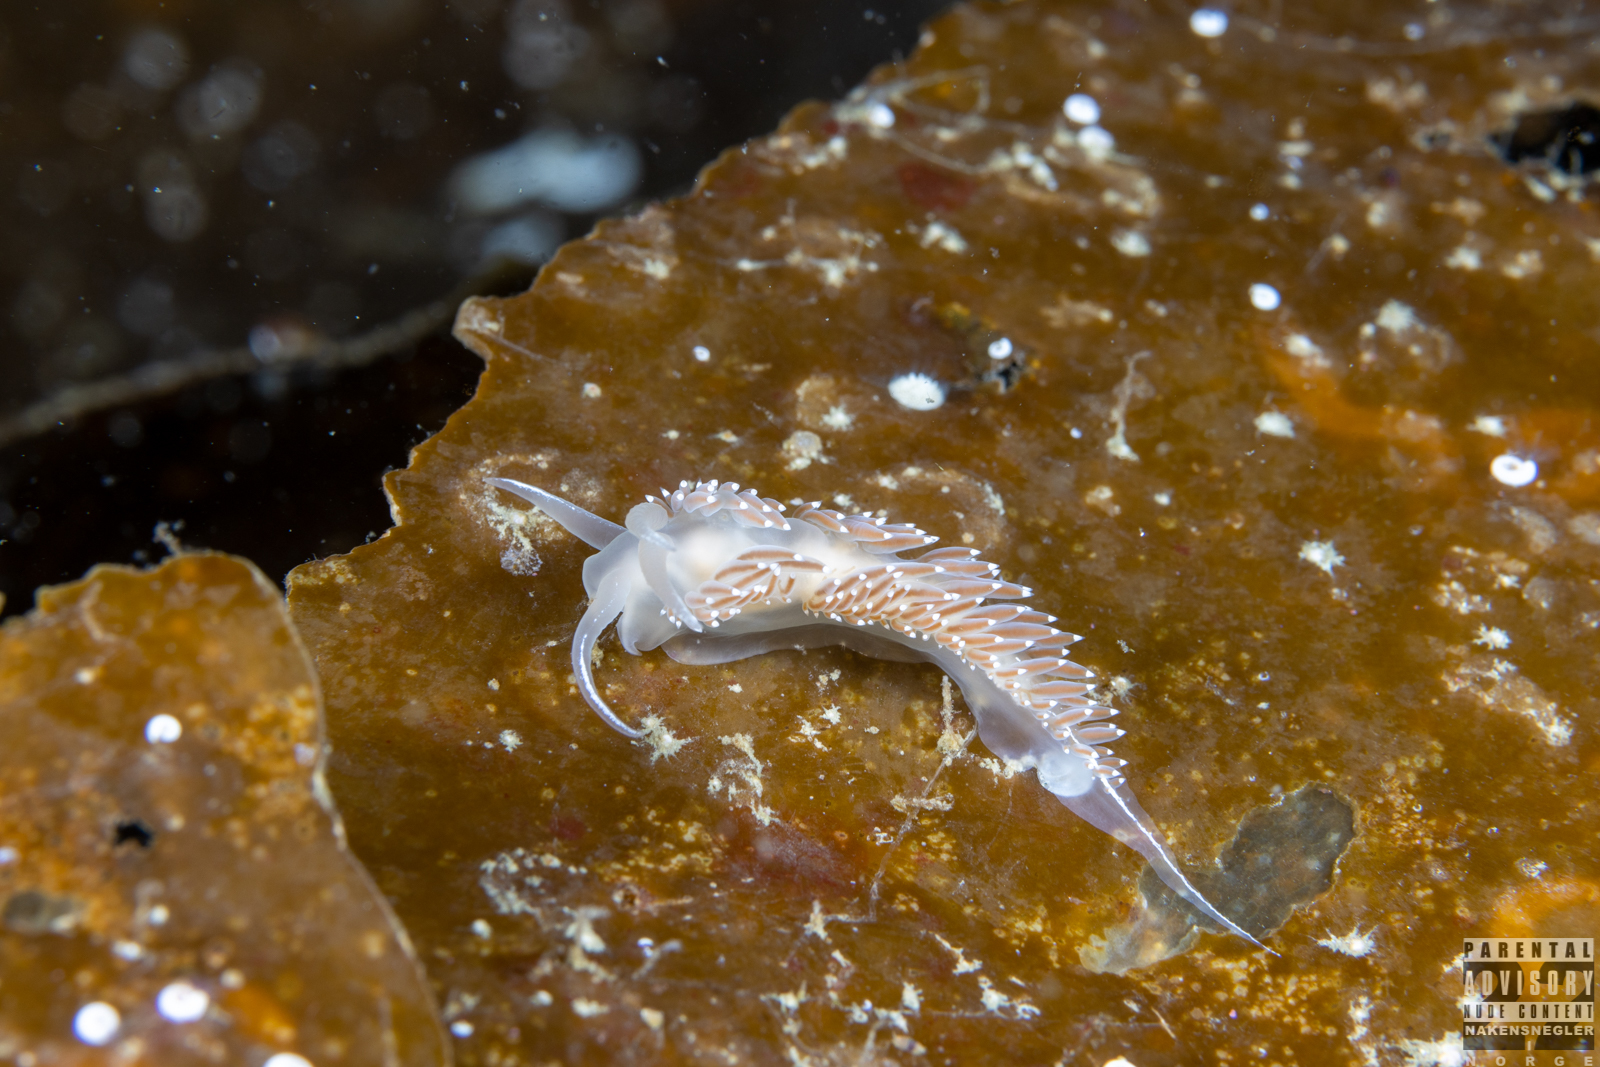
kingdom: Animalia
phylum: Mollusca
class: Gastropoda
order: Nudibranchia
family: Coryphellidae
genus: Coryphella
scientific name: Coryphella verrucosa
